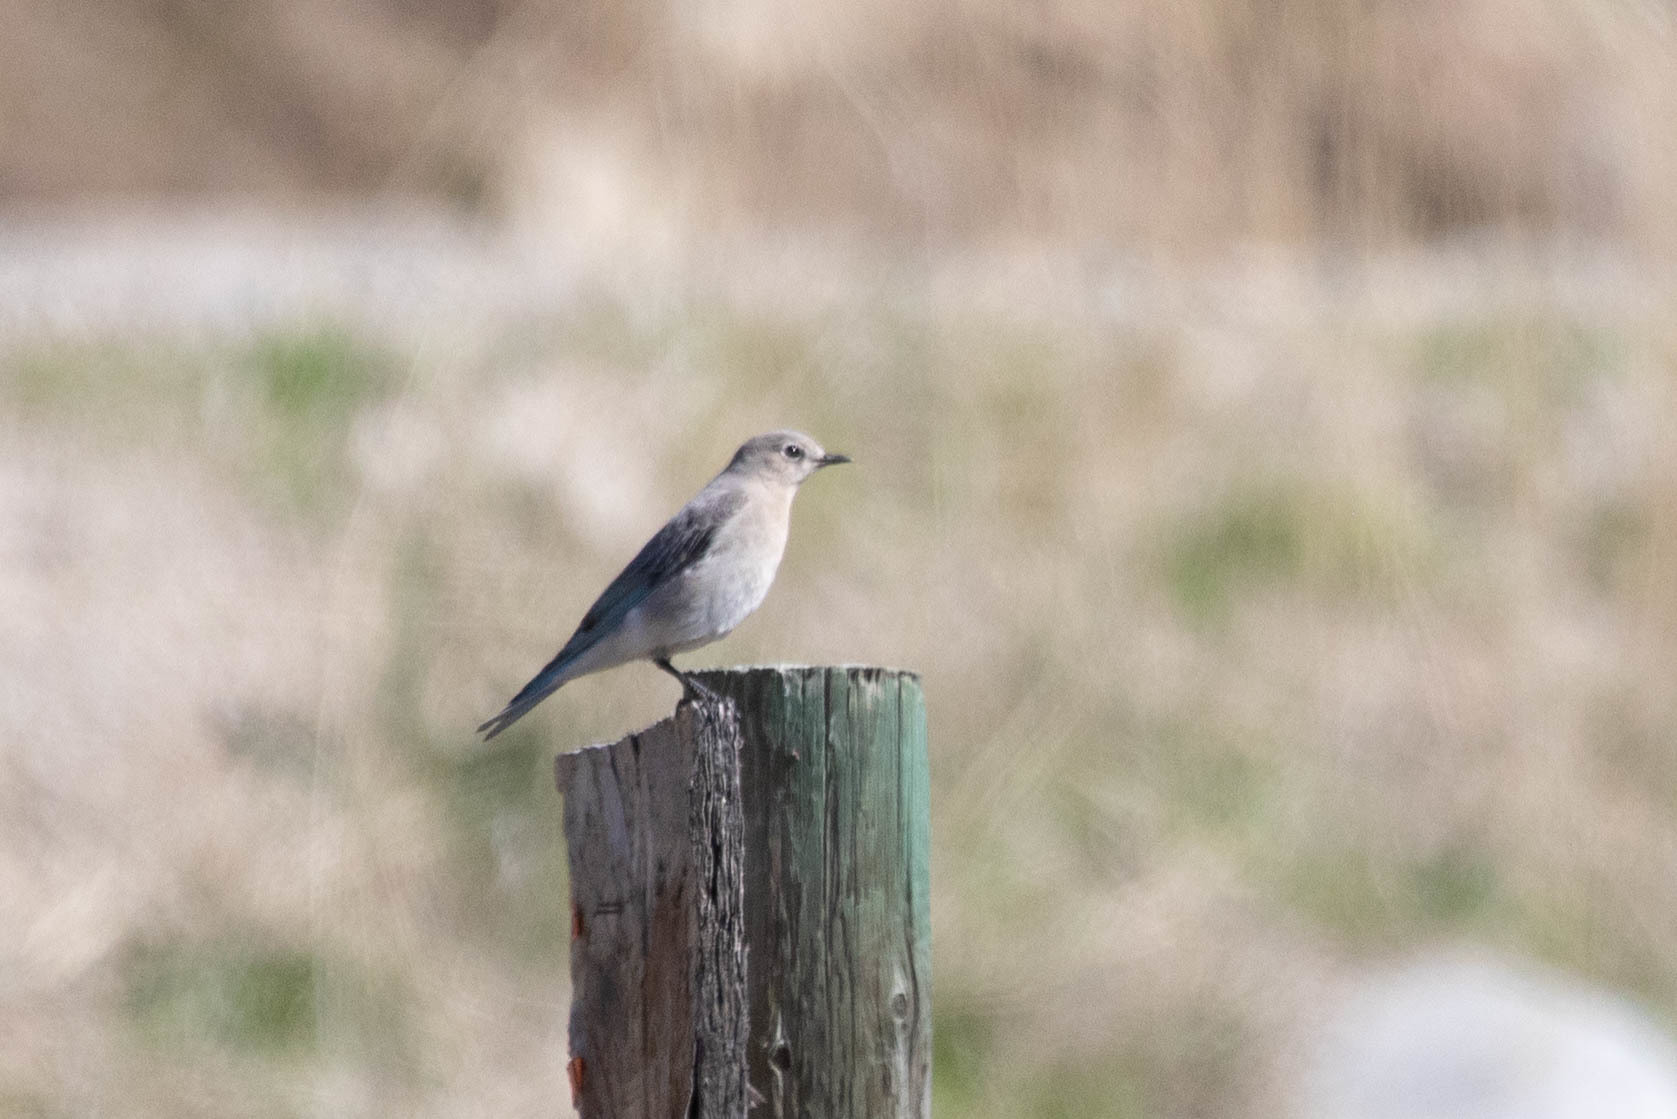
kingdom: Animalia
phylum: Chordata
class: Aves
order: Passeriformes
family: Turdidae
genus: Sialia
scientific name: Sialia currucoides
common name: Mountain bluebird
